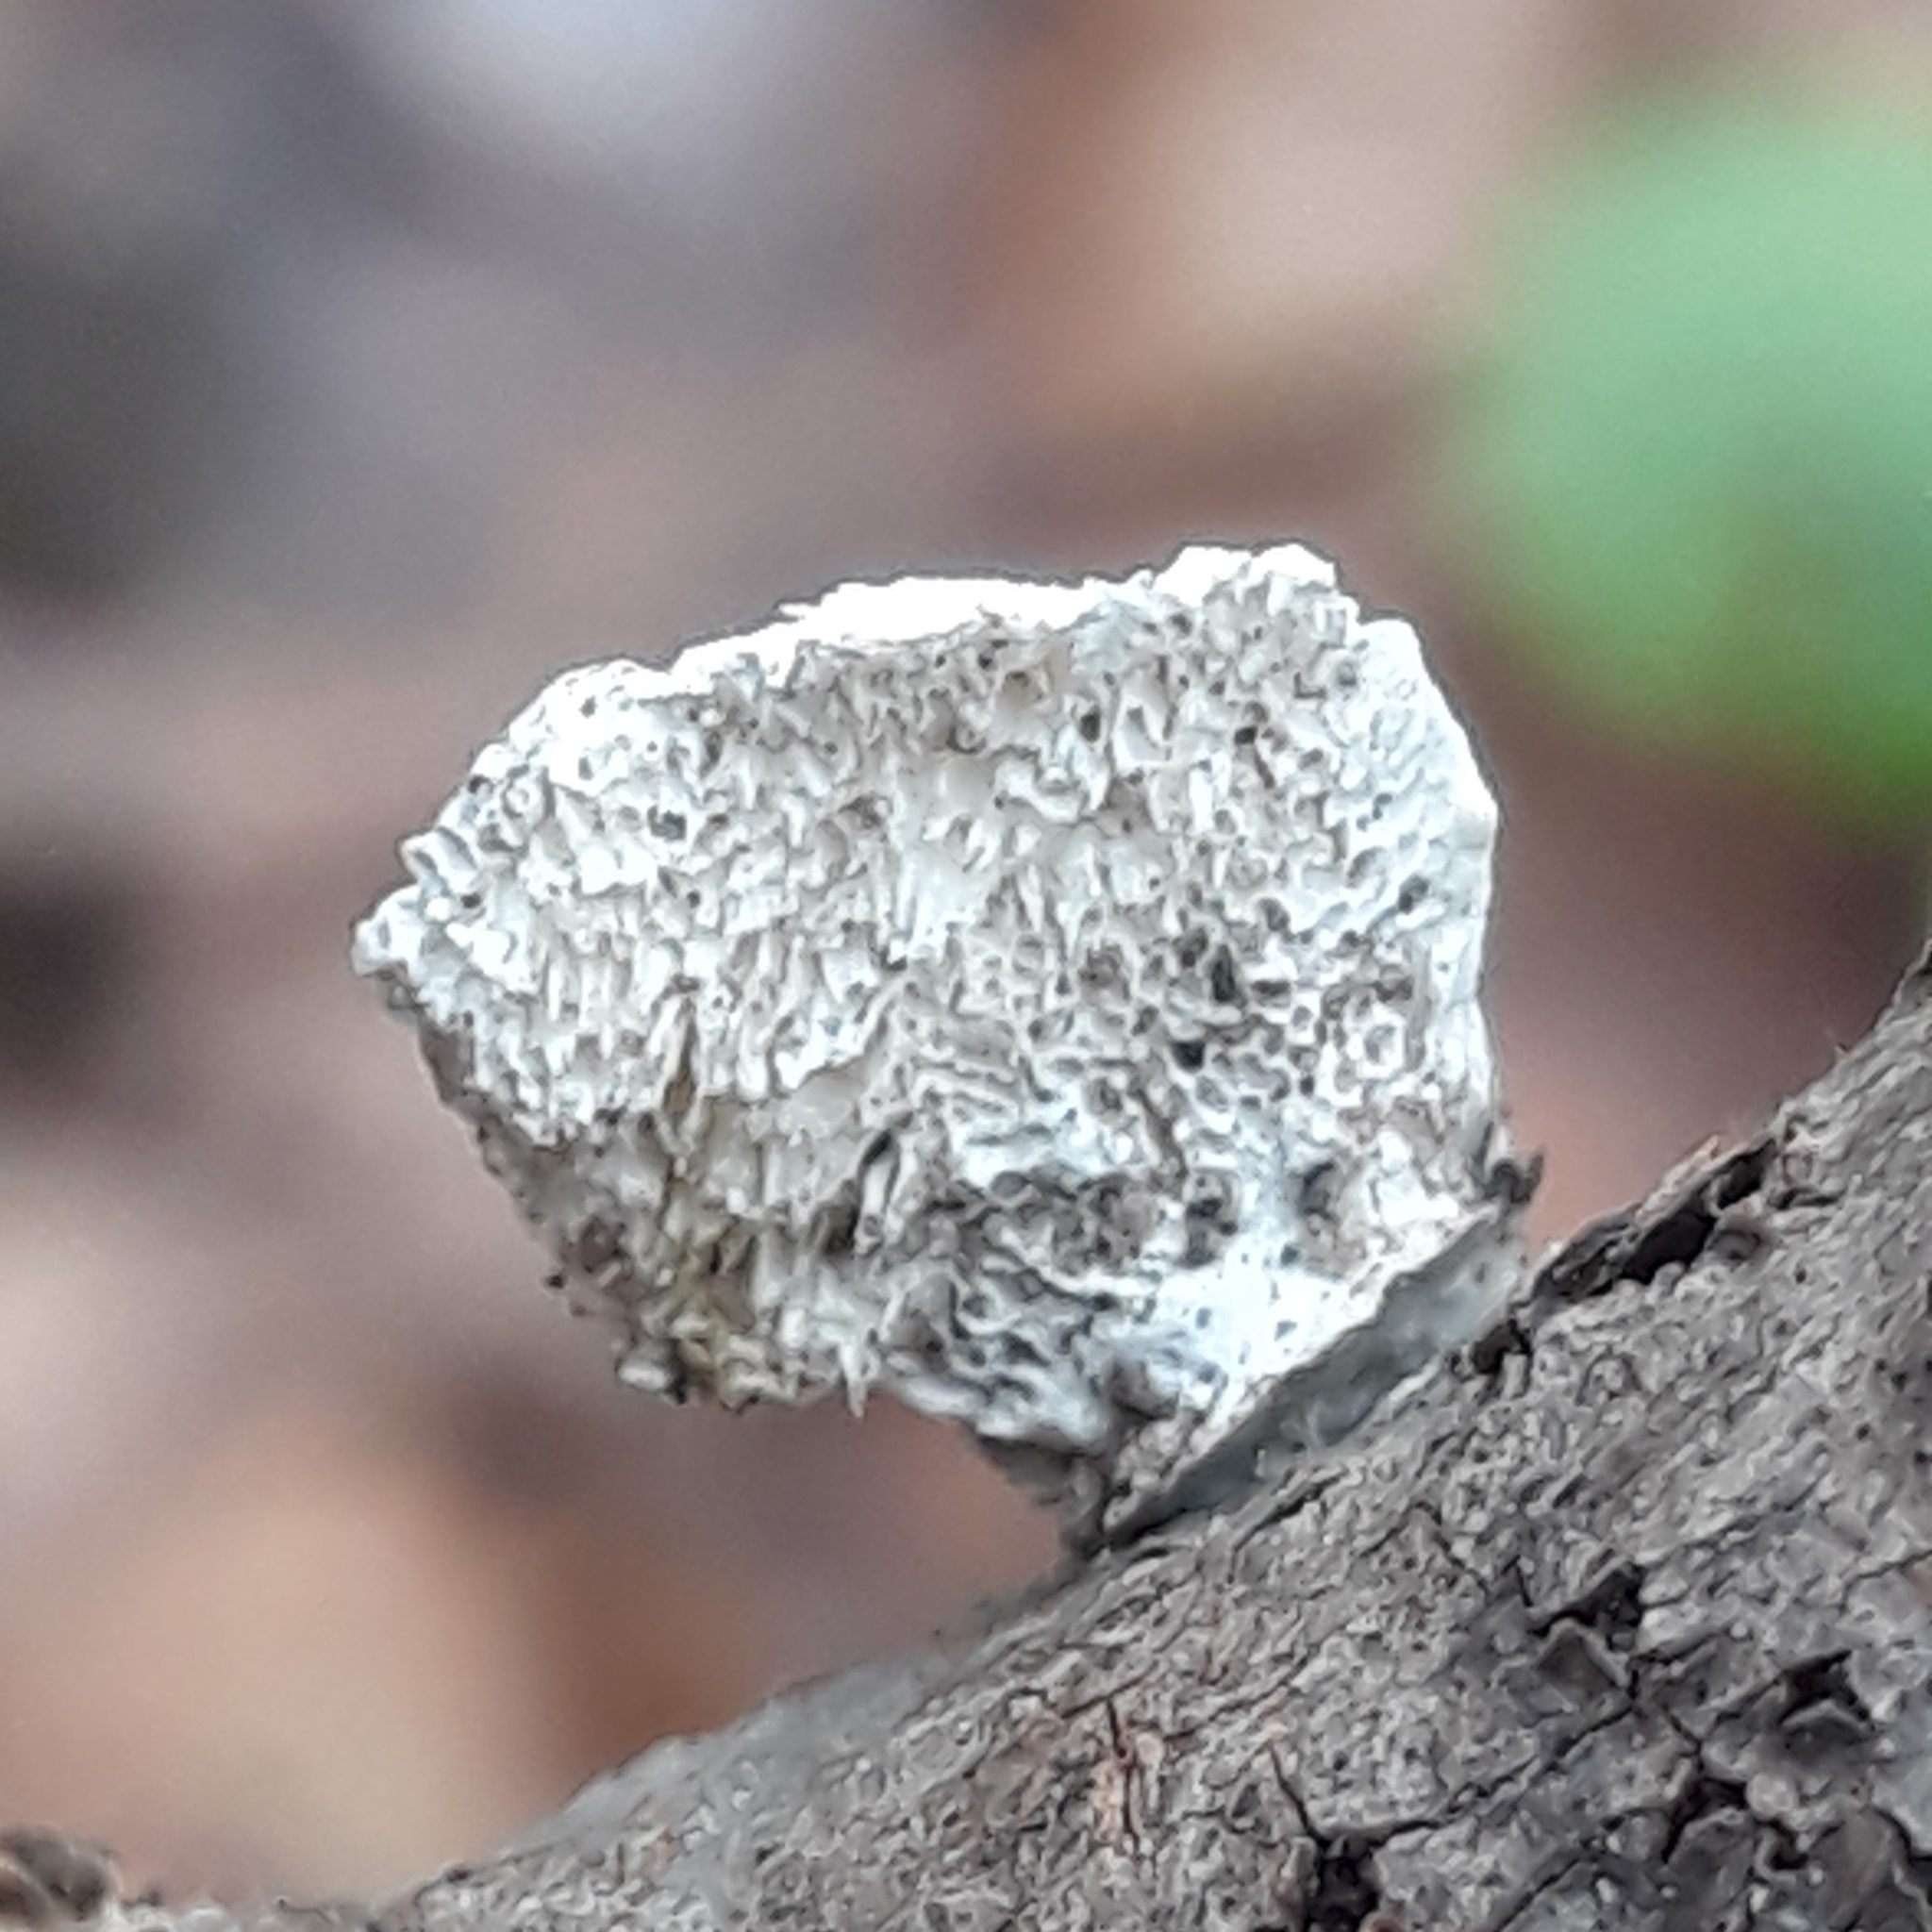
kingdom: Fungi
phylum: Basidiomycota
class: Agaricomycetes
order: Polyporales
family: Polyporaceae
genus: Poronidulus
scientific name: Poronidulus conchifer
